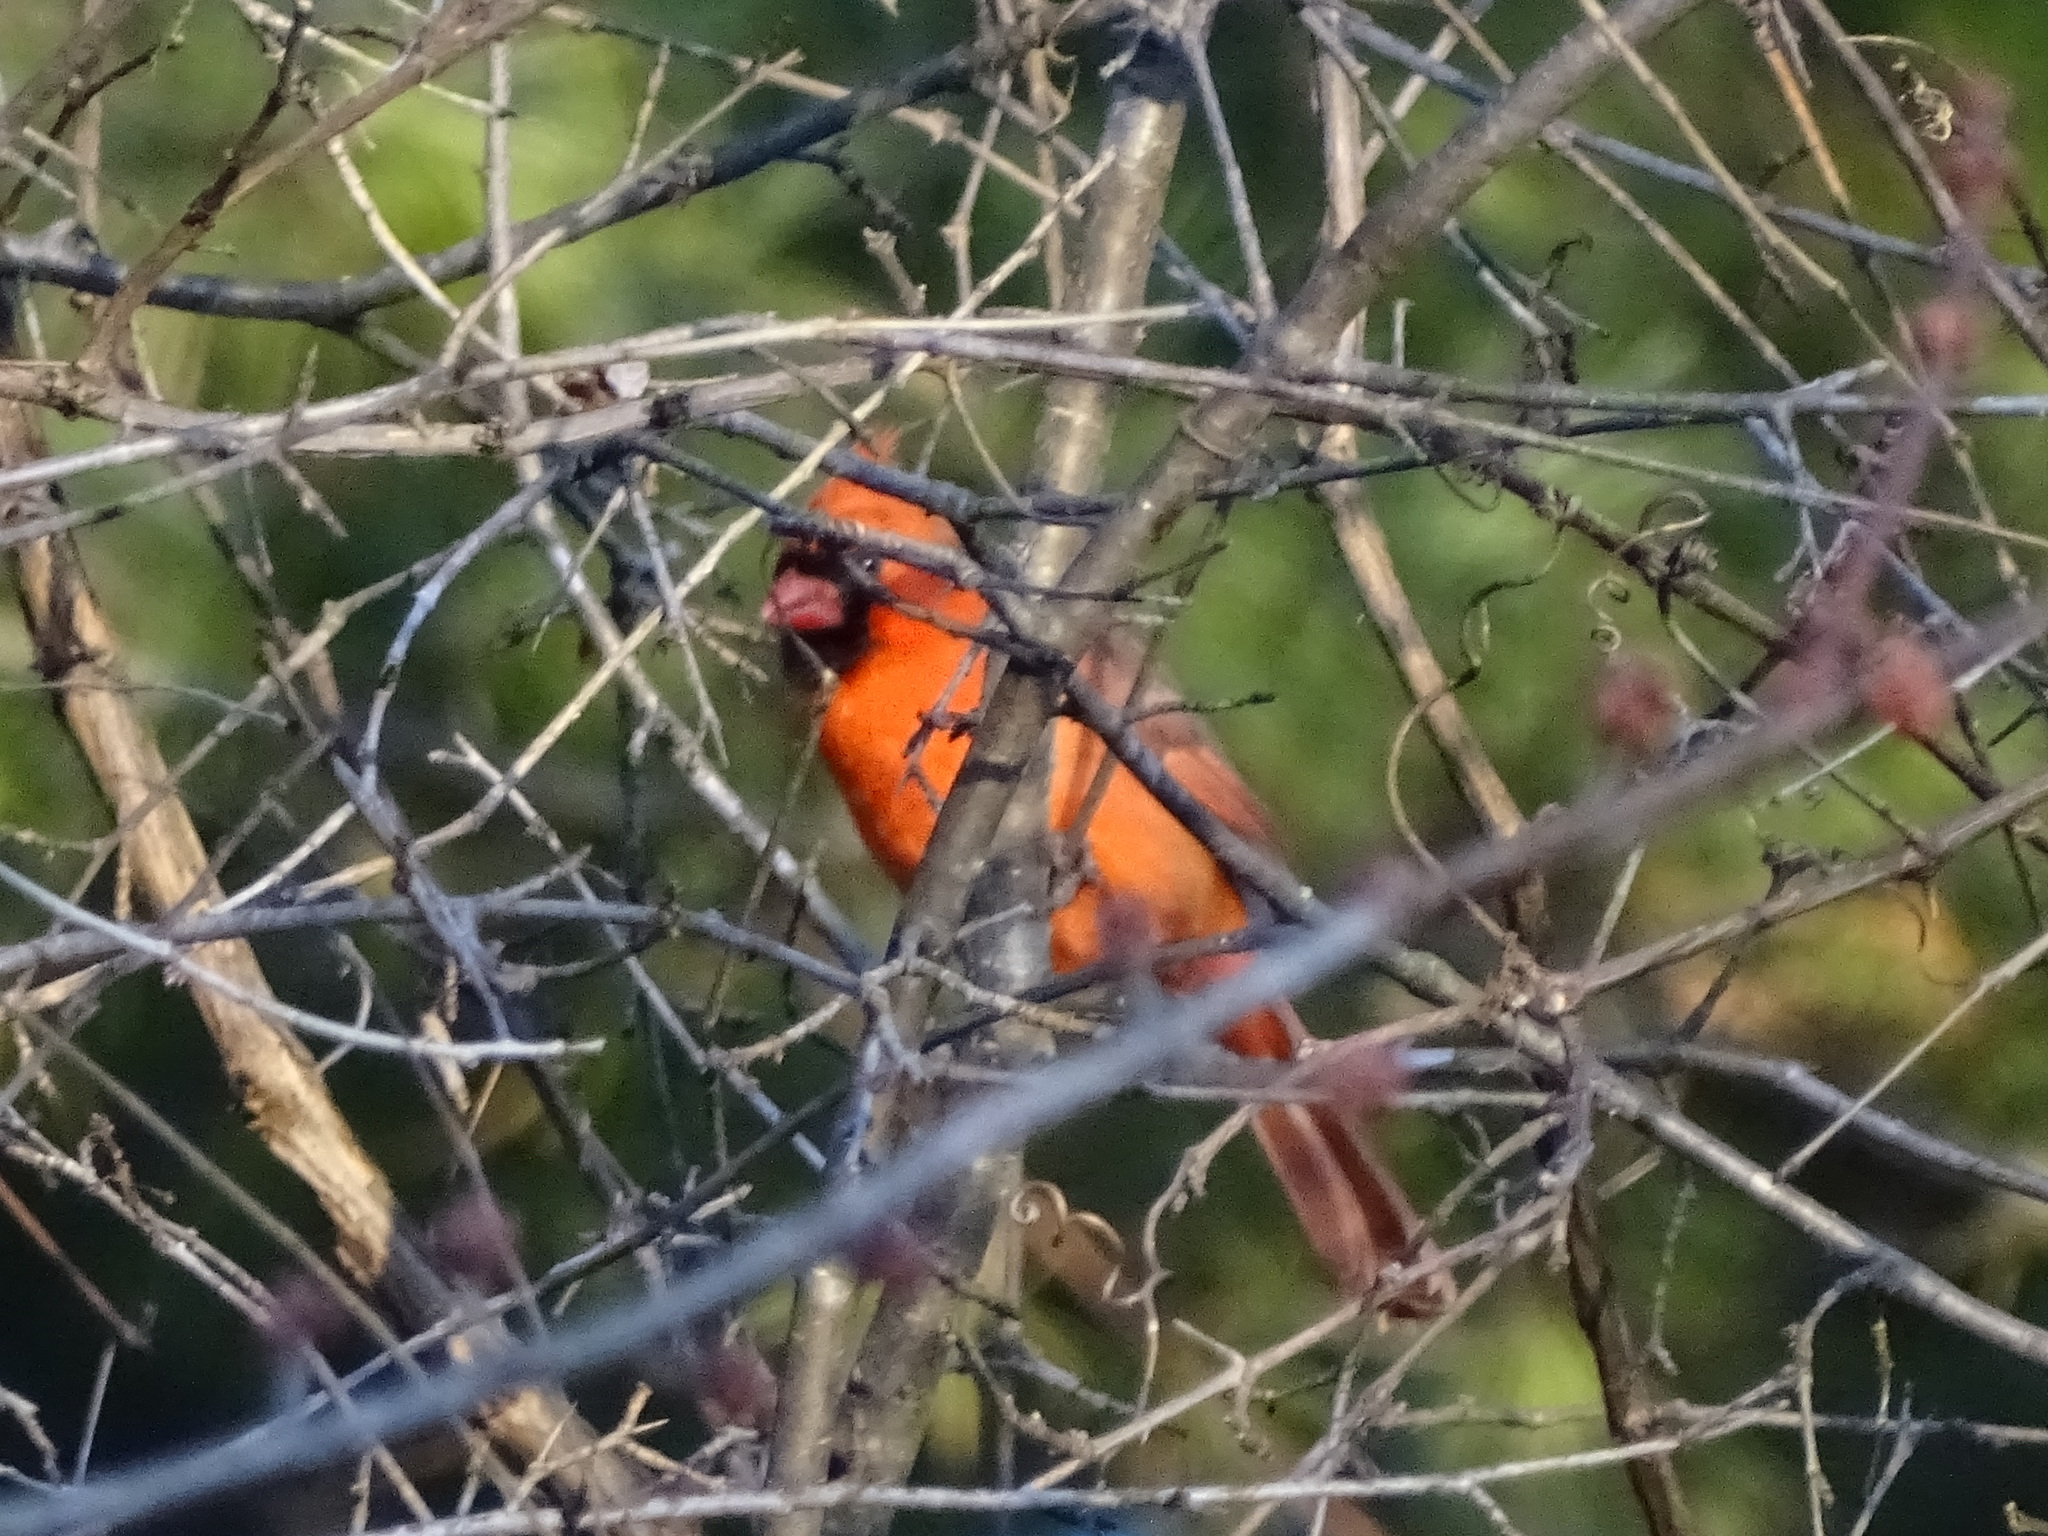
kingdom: Animalia
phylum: Chordata
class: Aves
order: Passeriformes
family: Cardinalidae
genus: Cardinalis
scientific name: Cardinalis cardinalis
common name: Northern cardinal
